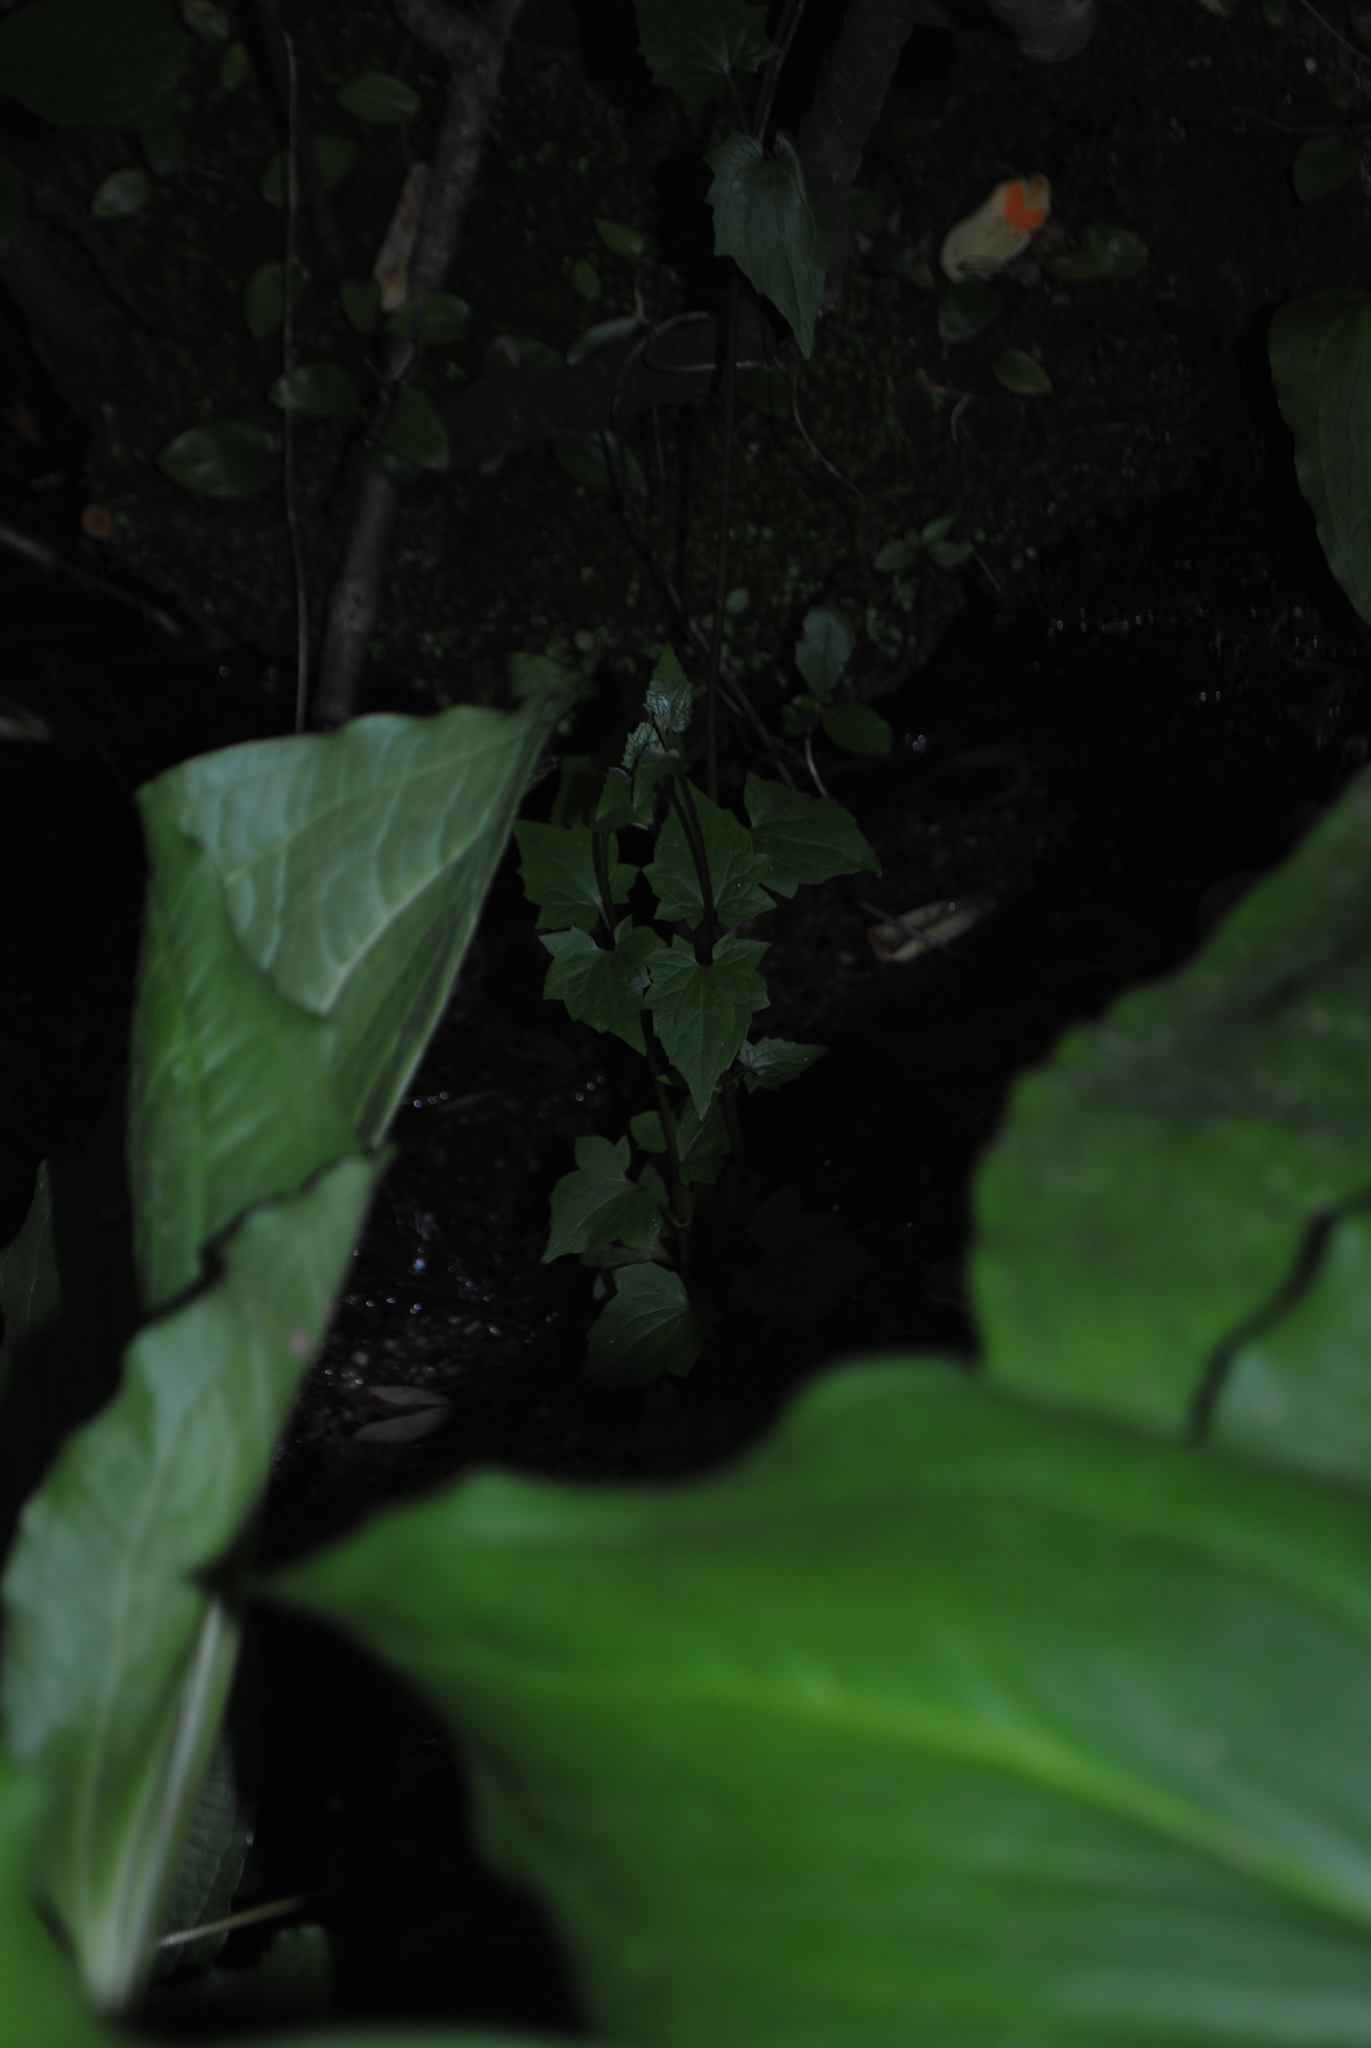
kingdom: Plantae
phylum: Tracheophyta
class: Magnoliopsida
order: Asterales
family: Asteraceae
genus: Mikania
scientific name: Mikania scandens
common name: Climbing hempvine
